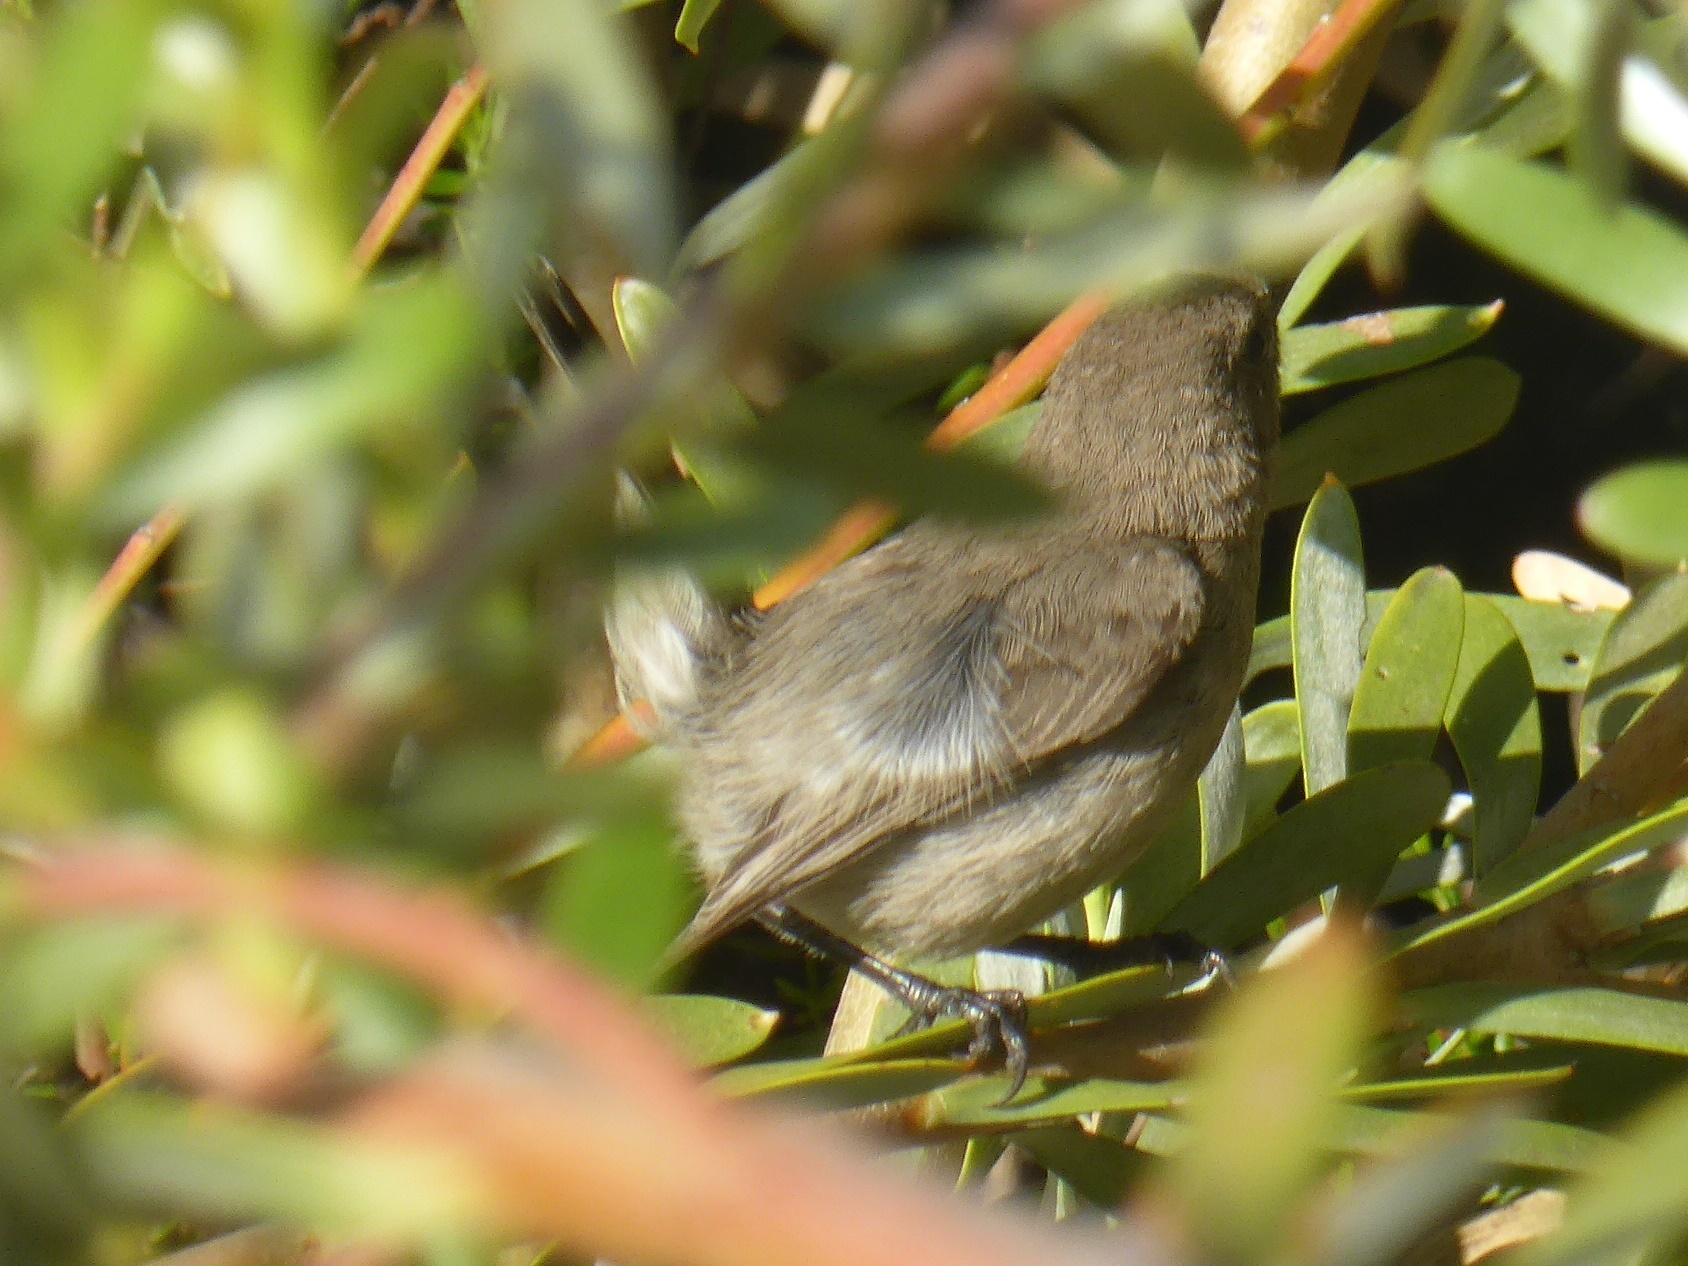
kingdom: Animalia
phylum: Chordata
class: Aves
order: Passeriformes
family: Nectariniidae
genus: Cinnyris
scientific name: Cinnyris chalybeus
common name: Southern double-collared sunbird
